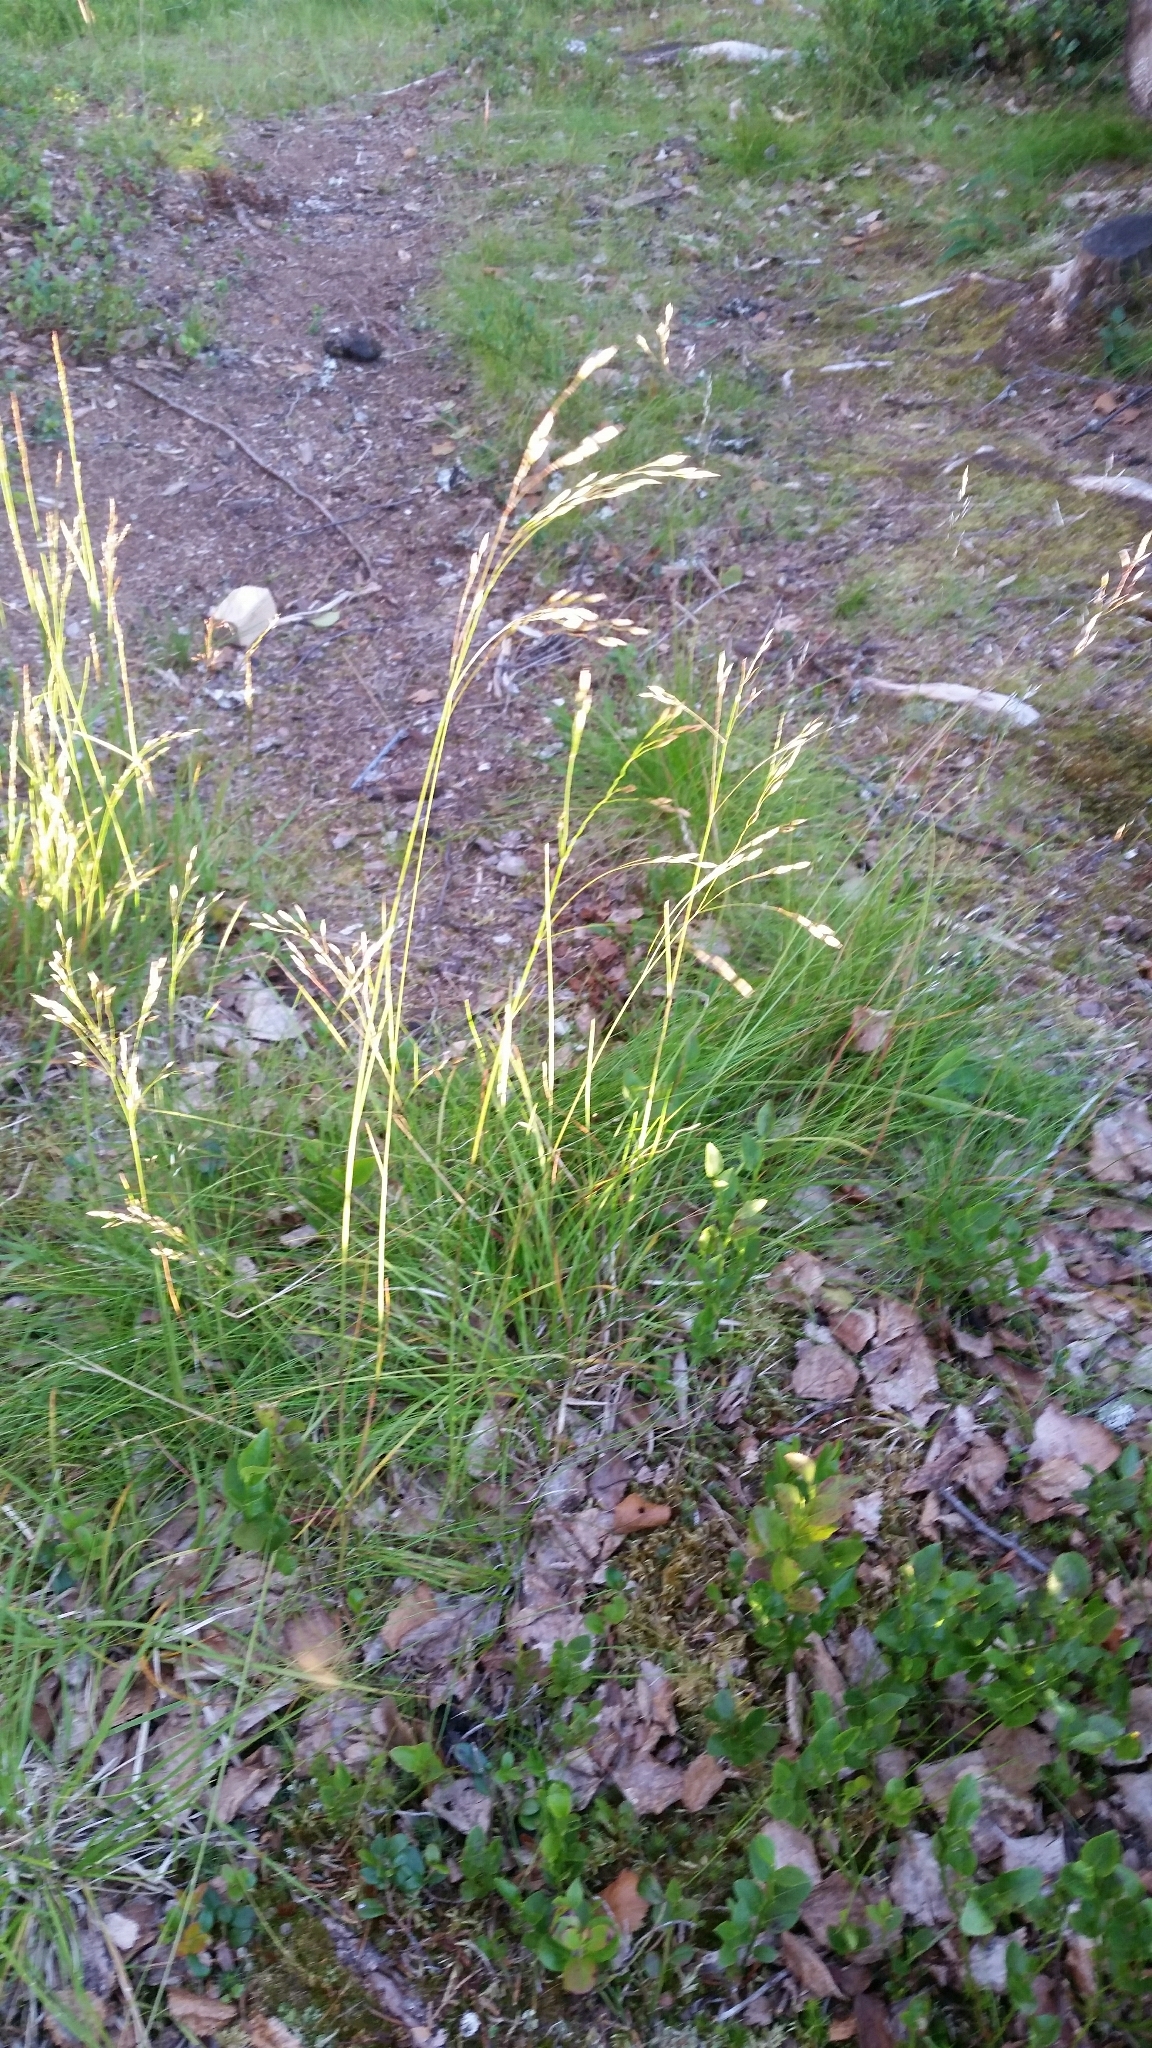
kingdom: Plantae
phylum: Tracheophyta
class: Liliopsida
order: Poales
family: Poaceae
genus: Avenella
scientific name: Avenella flexuosa
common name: Wavy hairgrass
